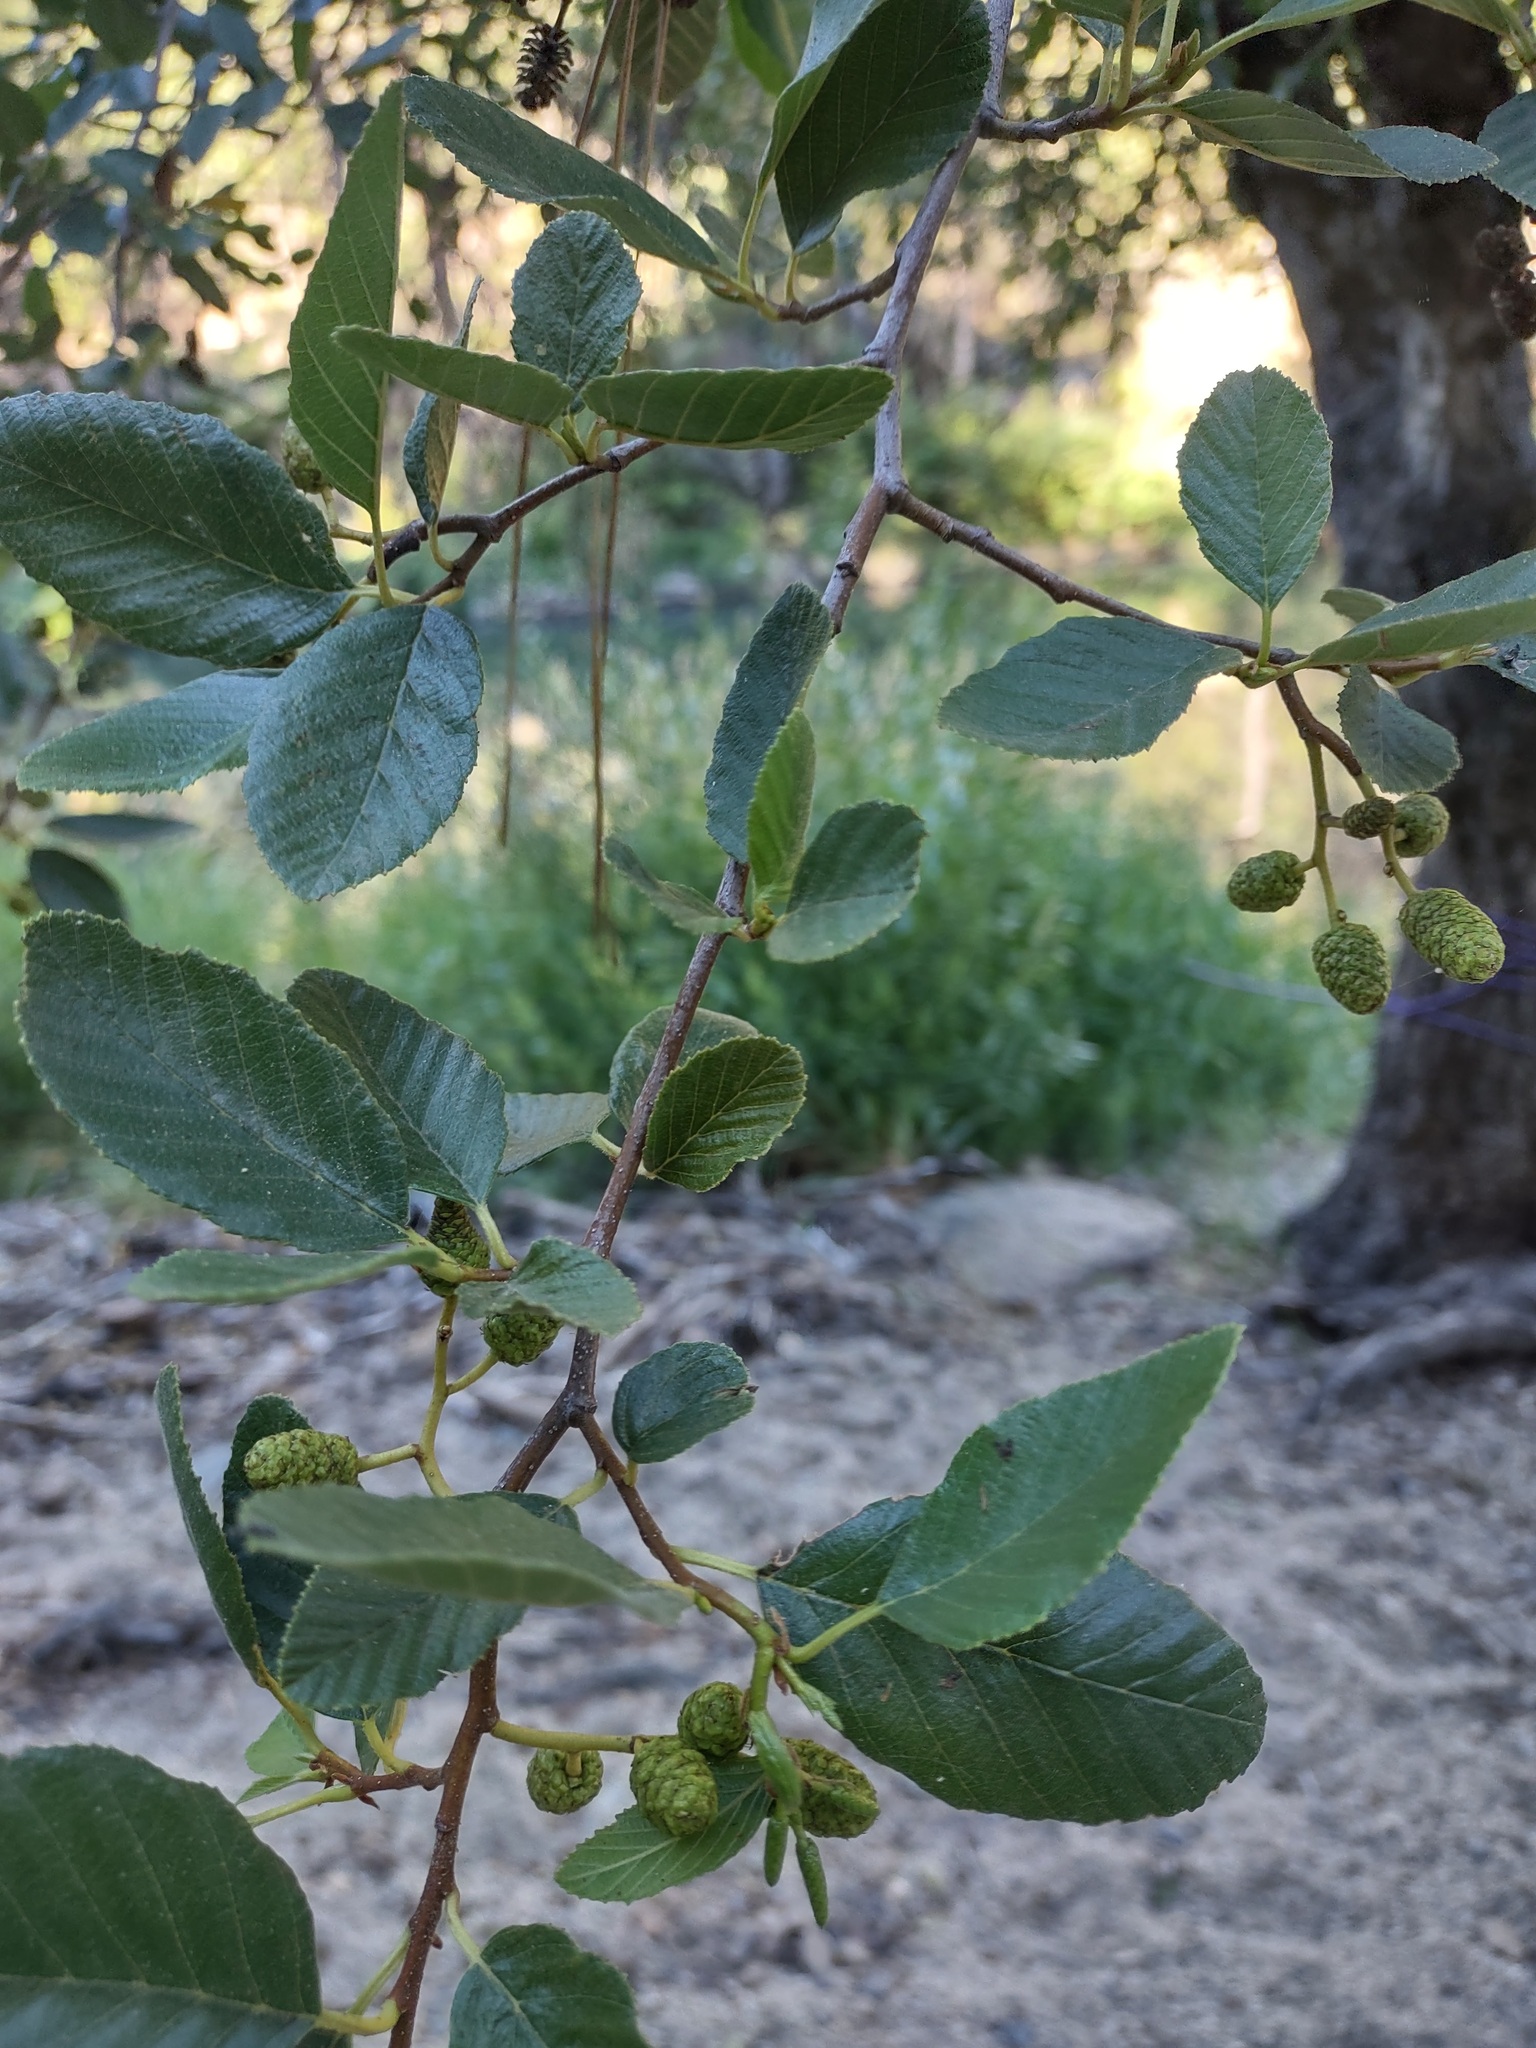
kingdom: Plantae
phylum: Tracheophyta
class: Magnoliopsida
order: Fagales
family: Betulaceae
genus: Alnus
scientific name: Alnus rhombifolia
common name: California alder
